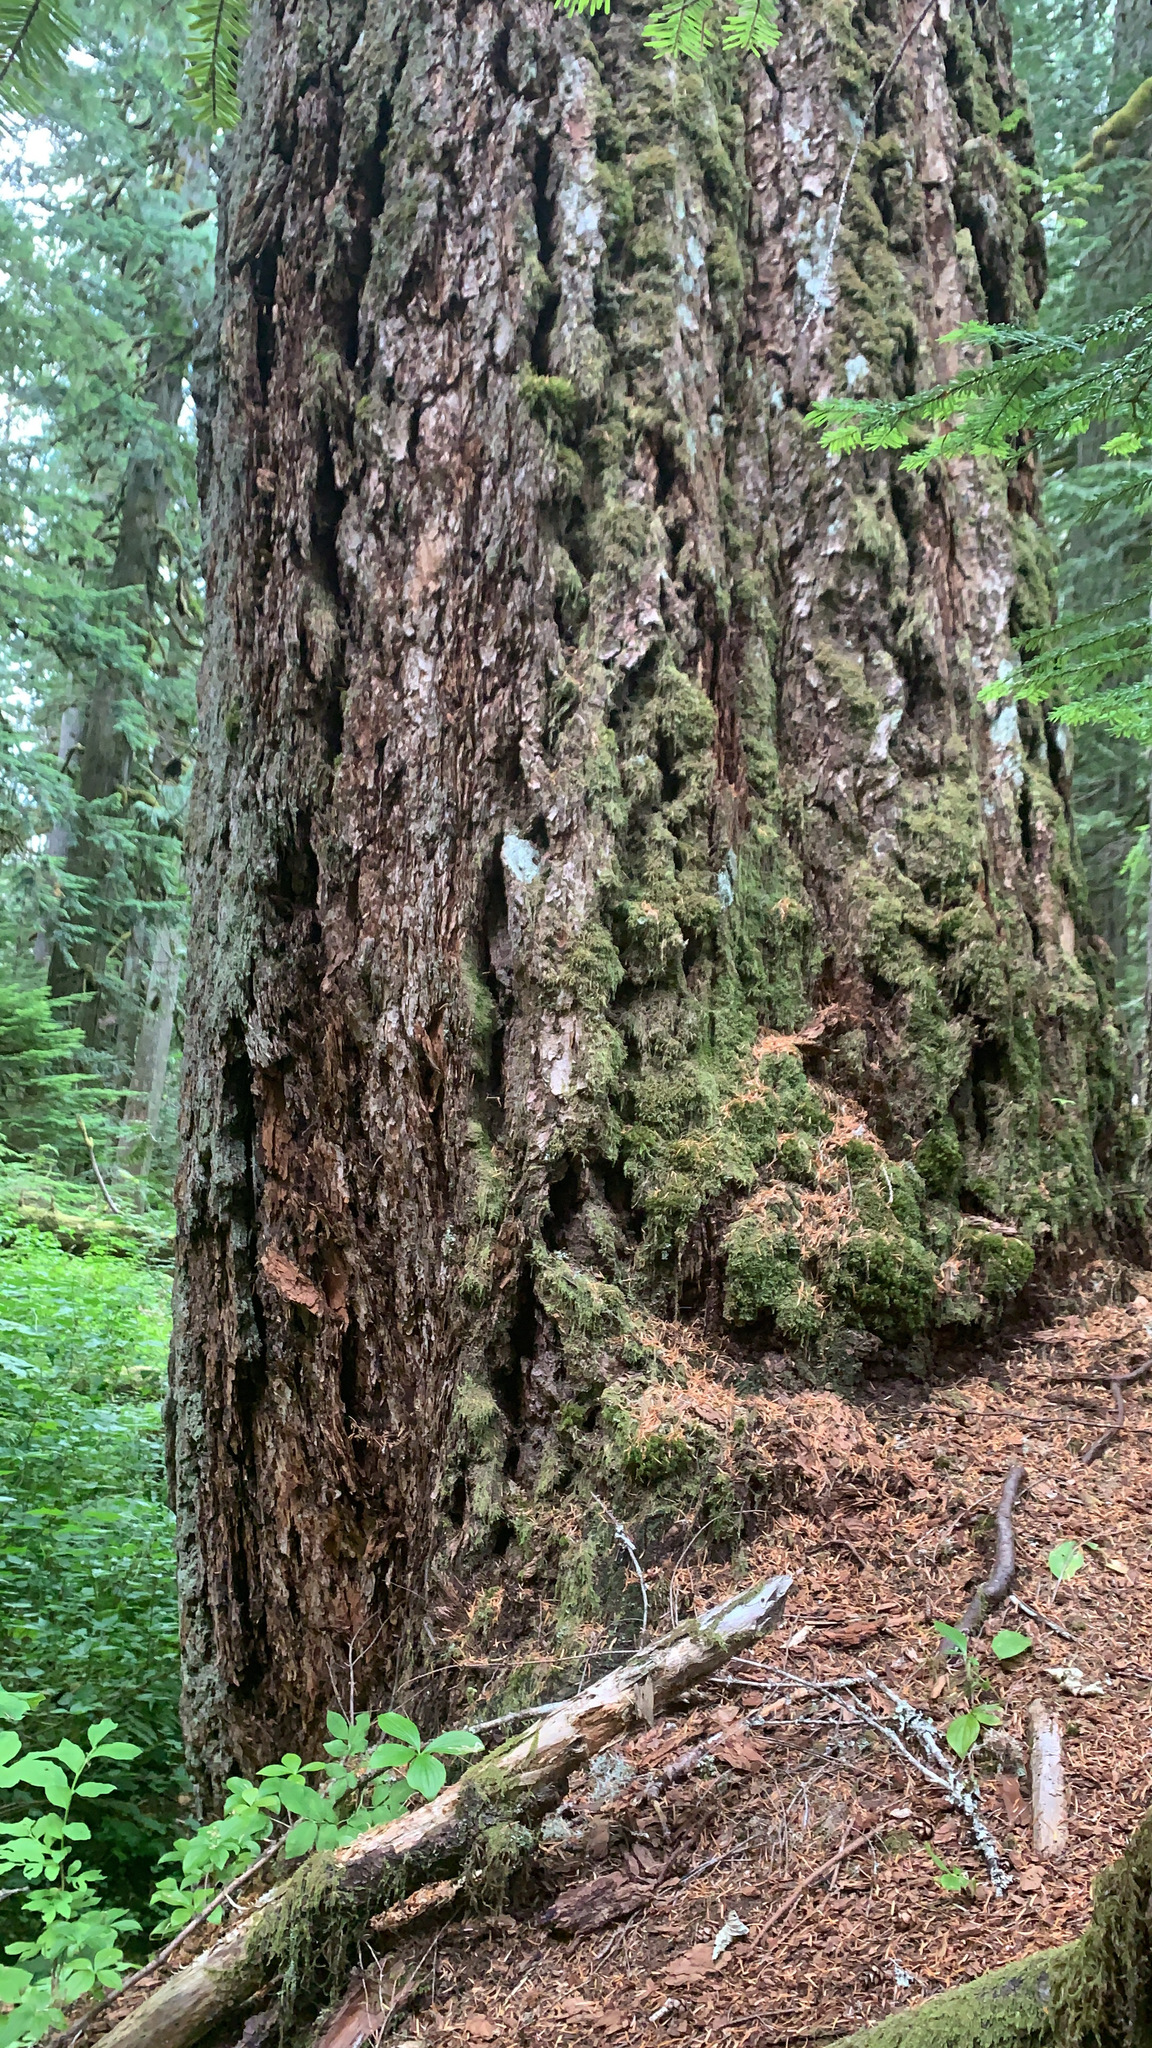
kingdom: Plantae
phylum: Tracheophyta
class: Pinopsida
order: Pinales
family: Pinaceae
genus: Pseudotsuga
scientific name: Pseudotsuga menziesii
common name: Douglas fir
